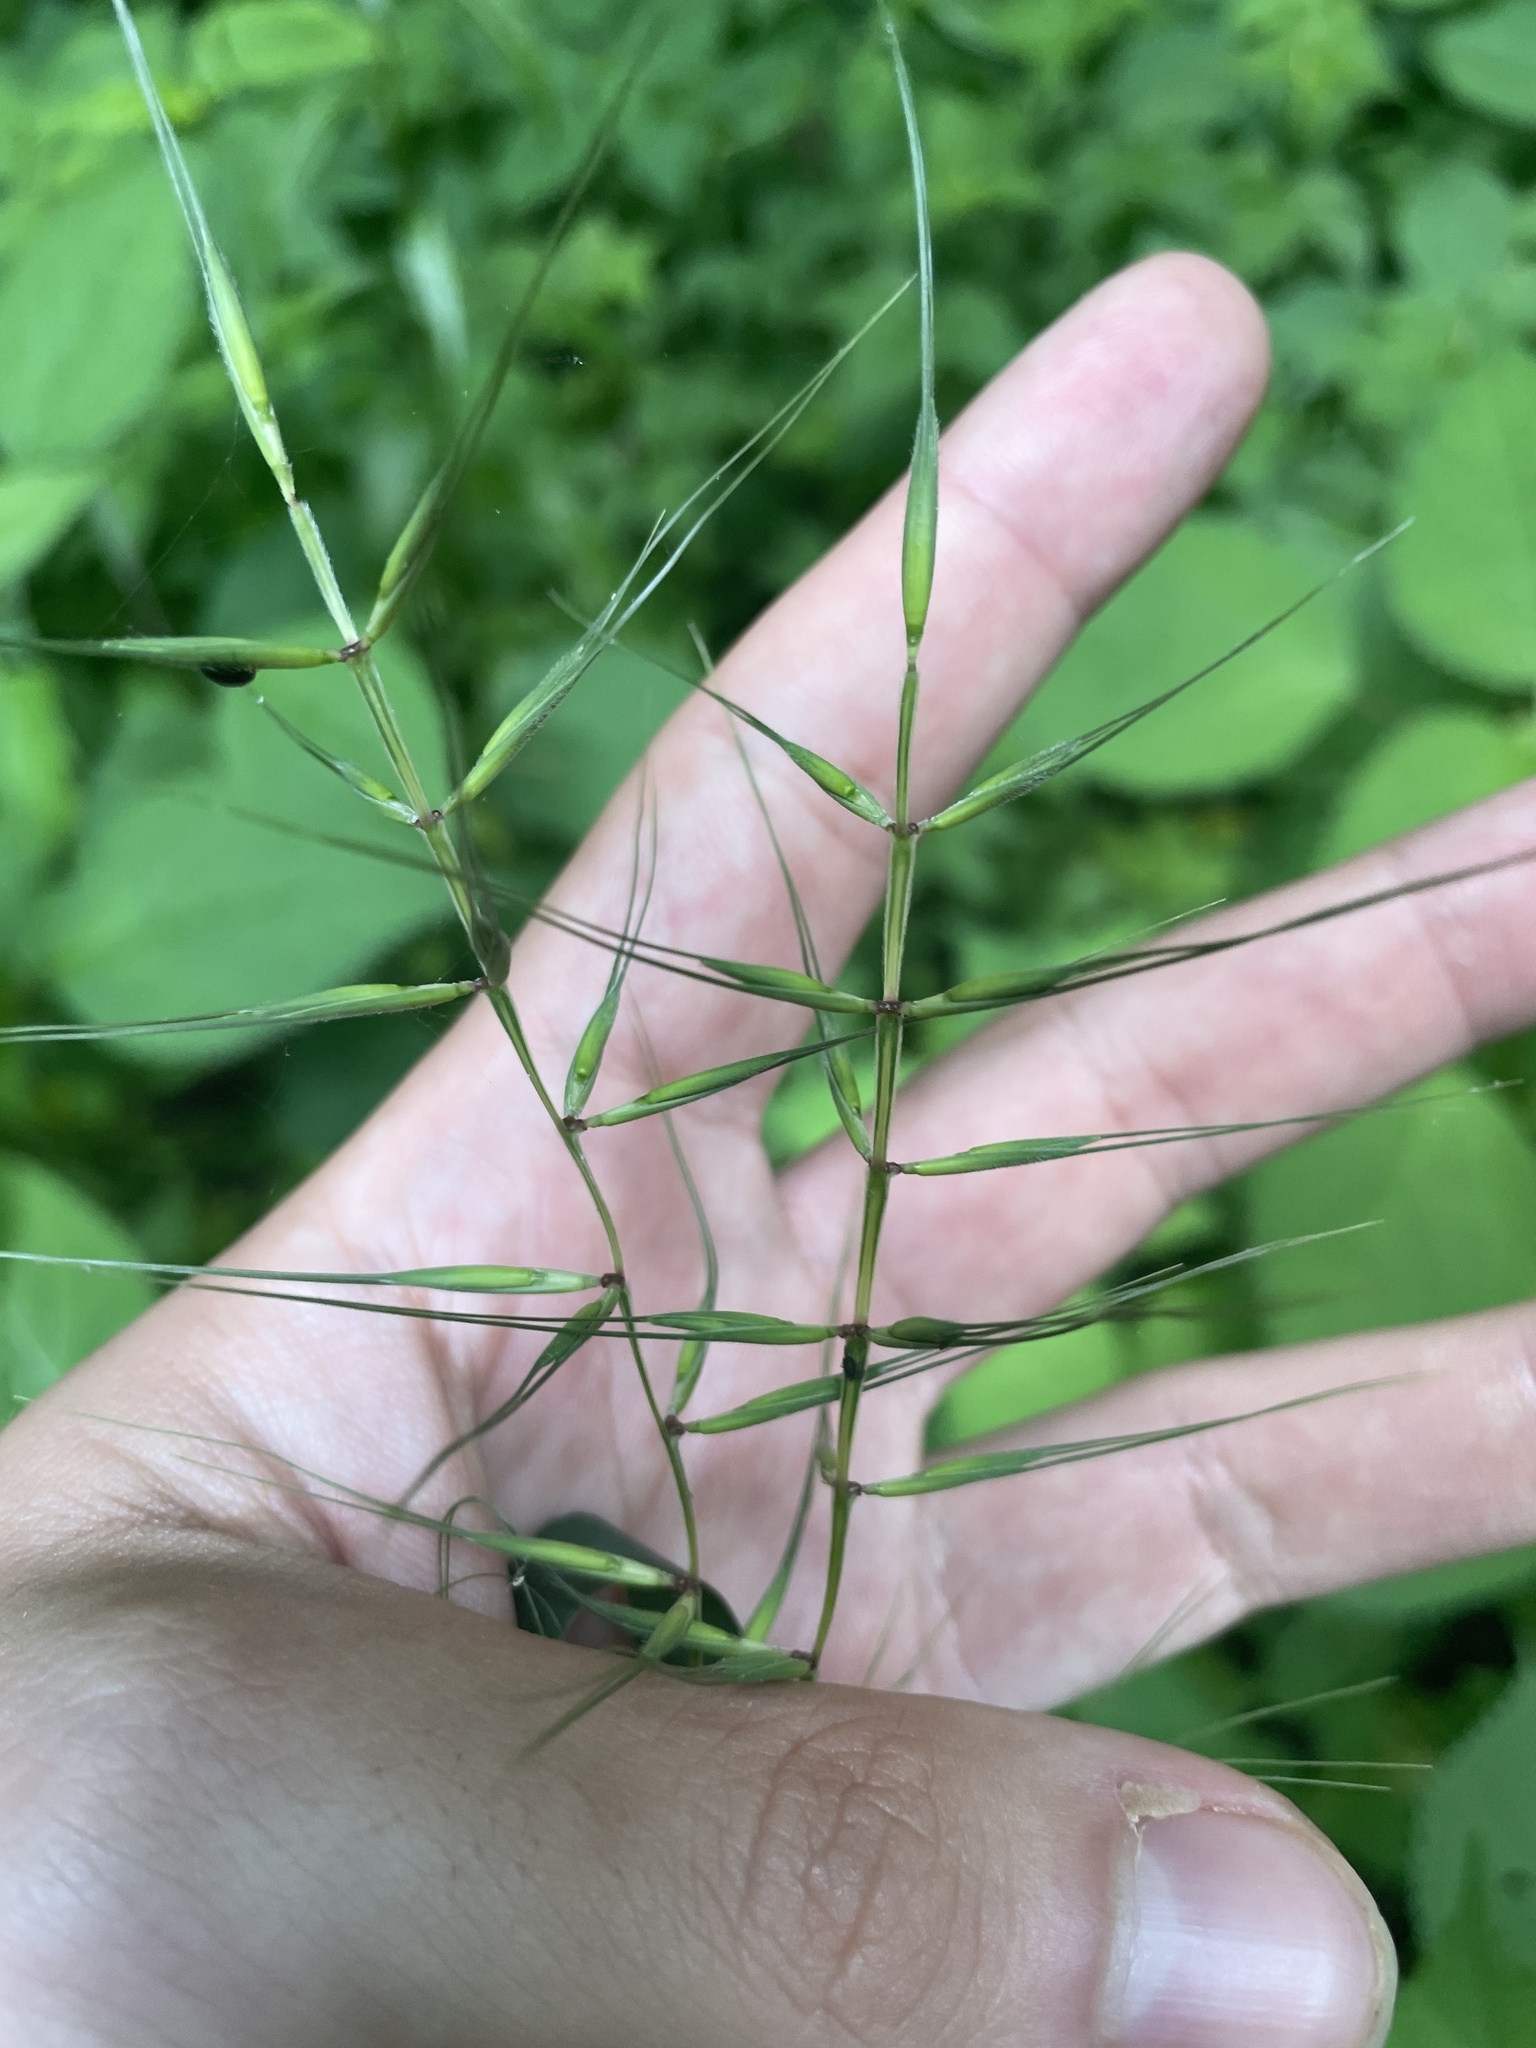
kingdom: Plantae
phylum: Tracheophyta
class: Liliopsida
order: Poales
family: Poaceae
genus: Elymus
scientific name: Elymus hystrix
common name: Bottlebrush grass
